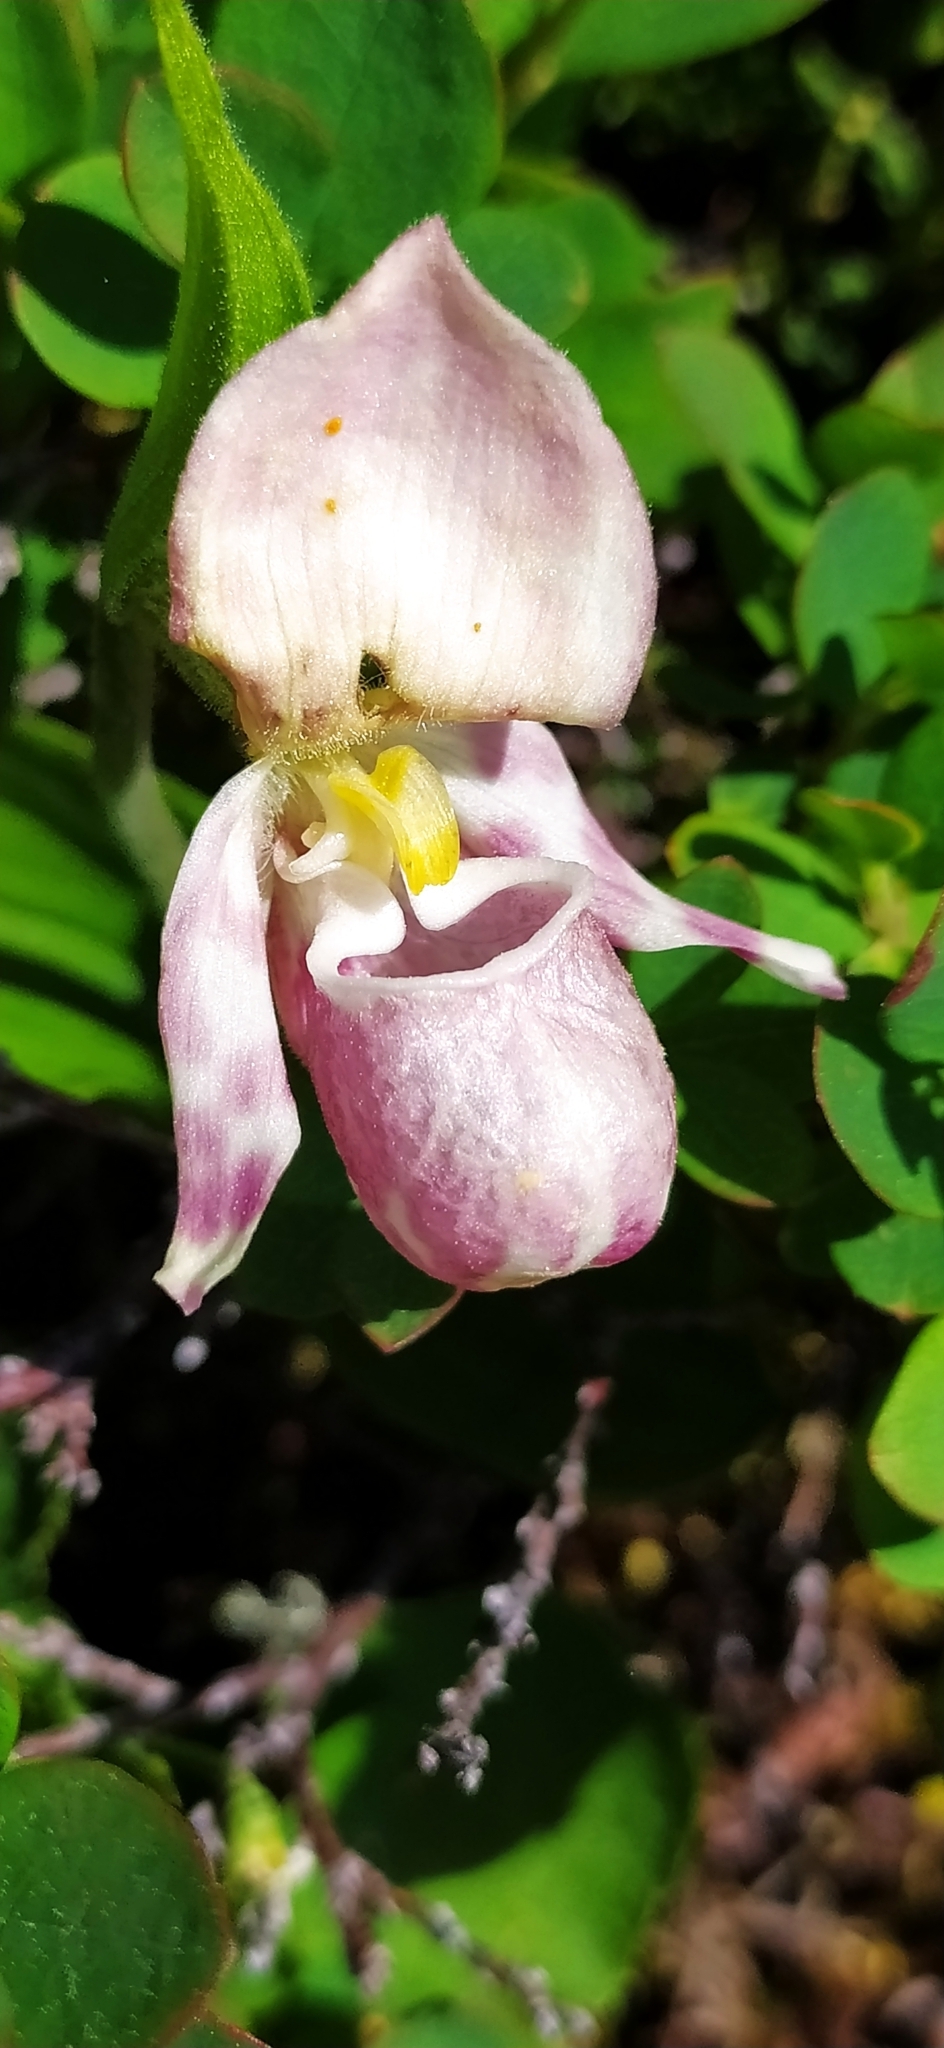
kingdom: Plantae
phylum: Tracheophyta
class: Liliopsida
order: Asparagales
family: Orchidaceae
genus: Cypripedium
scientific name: Cypripedium guttatum
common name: Pink lady slipper
